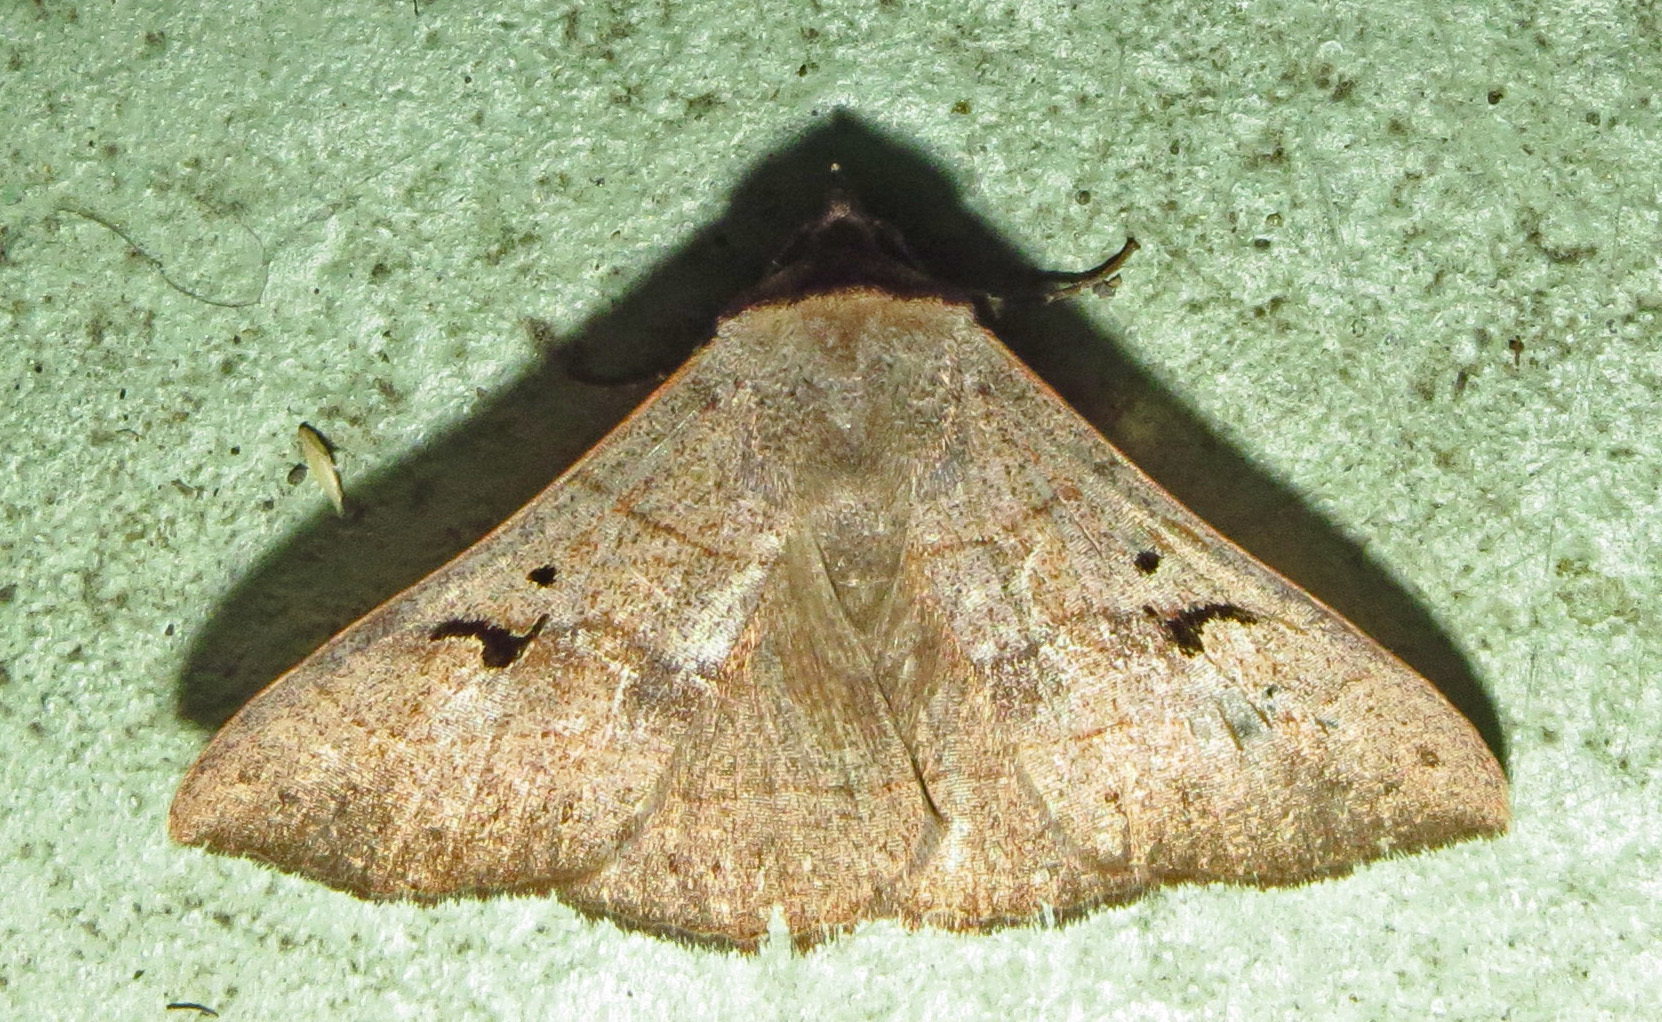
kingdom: Animalia
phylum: Arthropoda
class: Insecta
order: Lepidoptera
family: Erebidae
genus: Panopoda
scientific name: Panopoda carneicosta
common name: Brown panopoda moth
